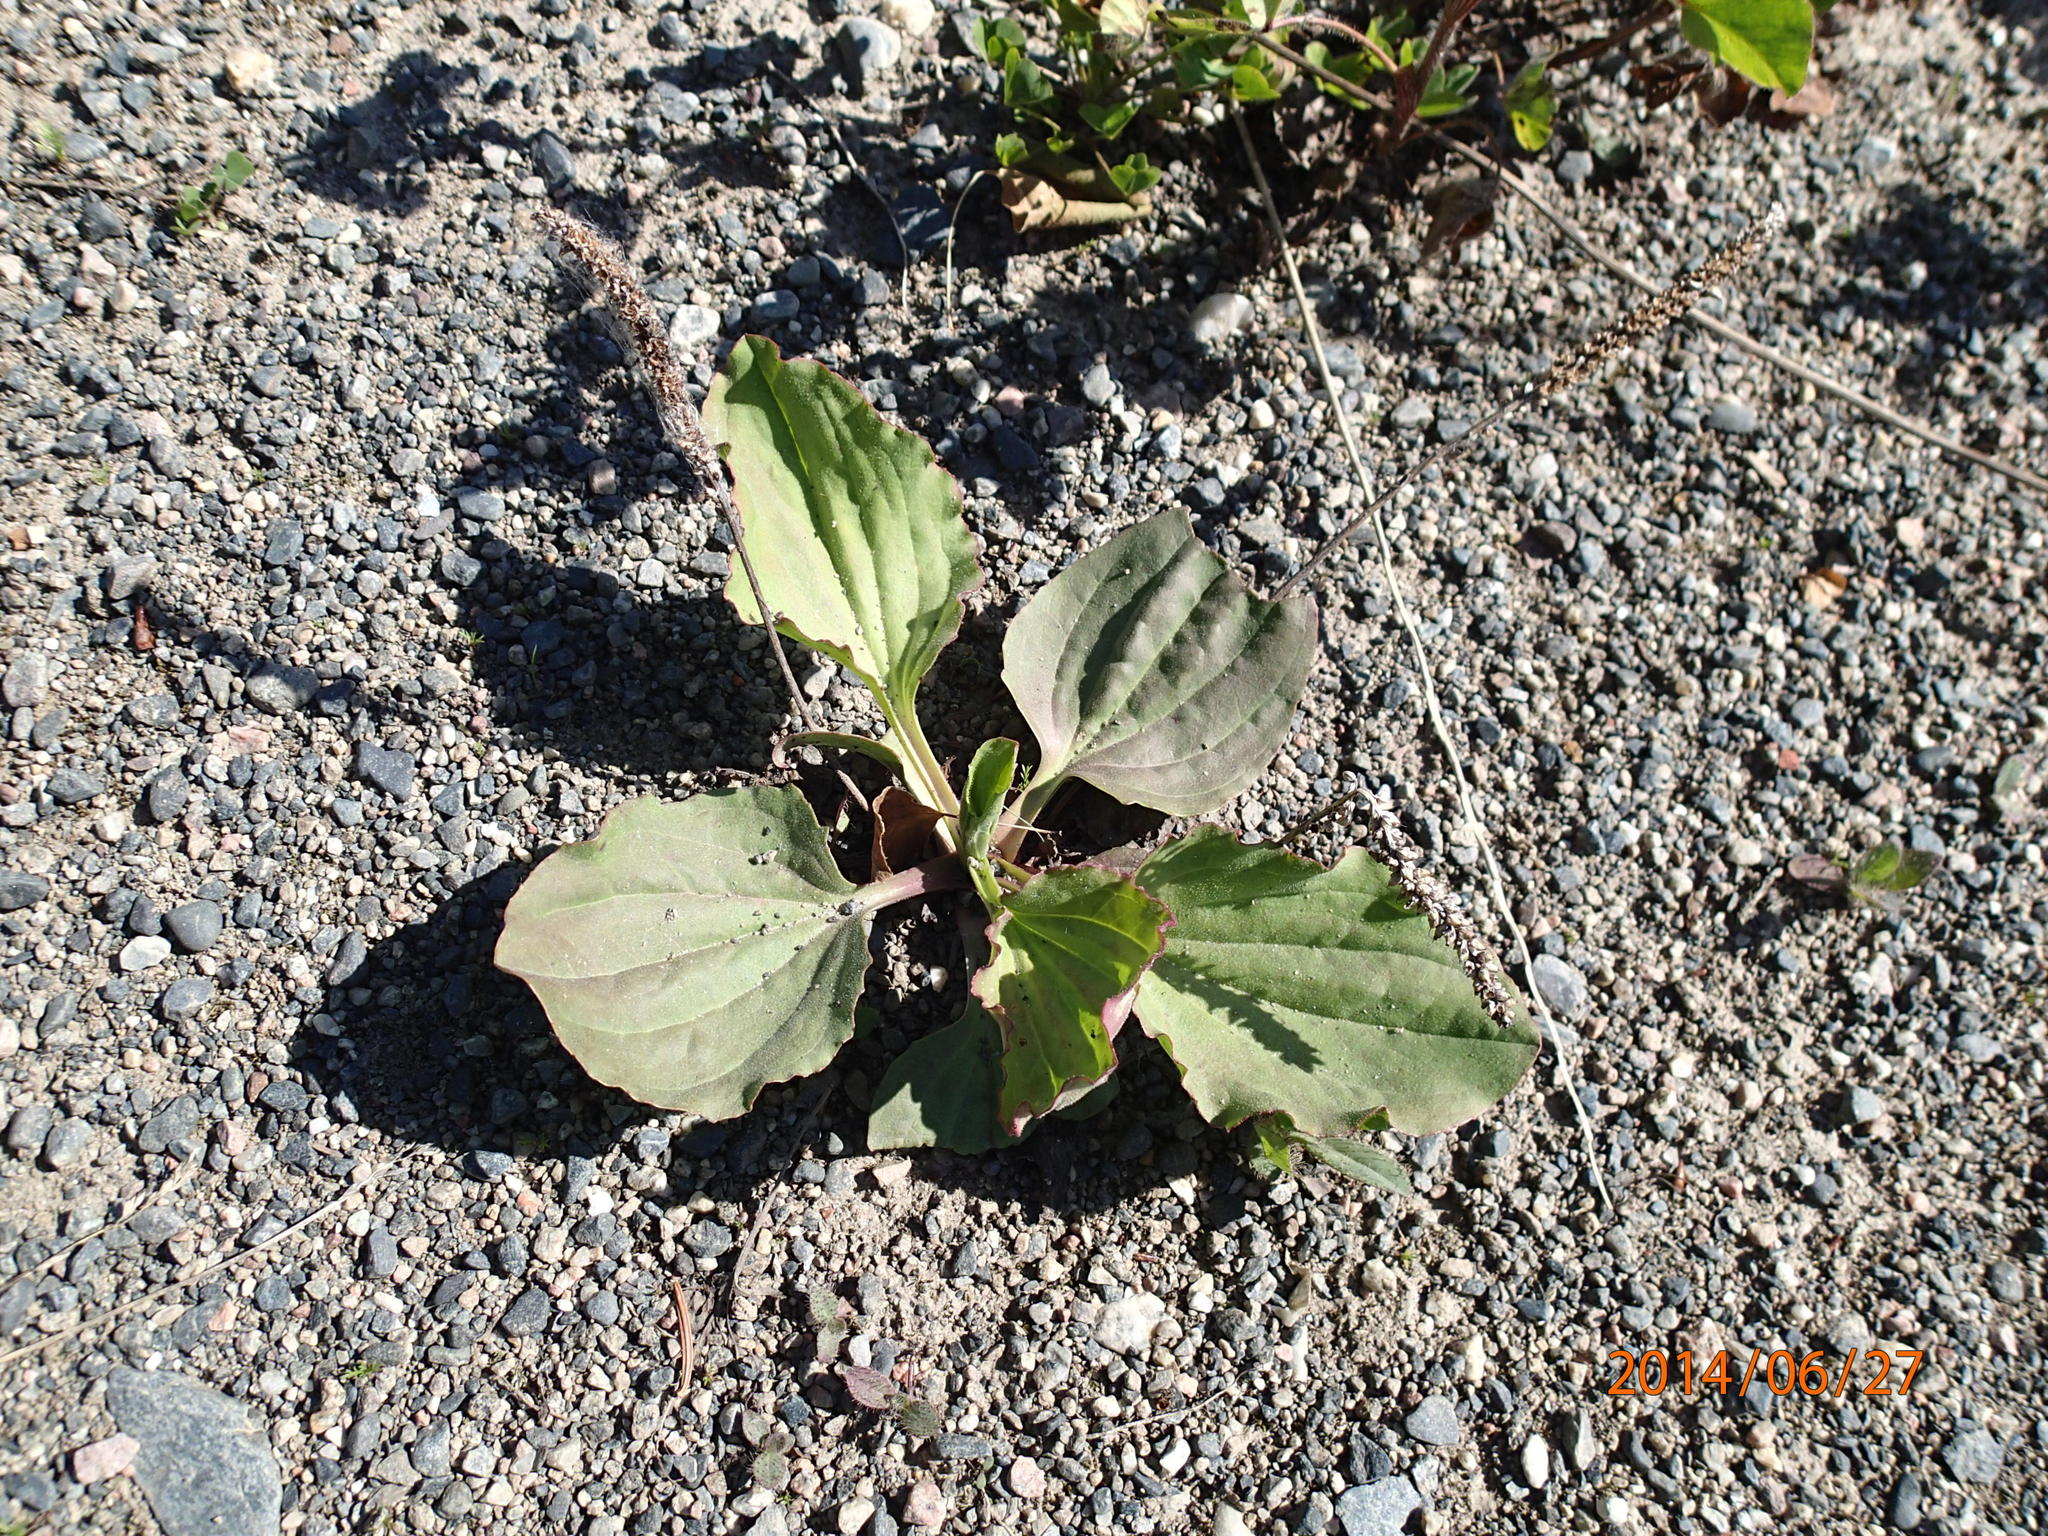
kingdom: Plantae
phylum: Tracheophyta
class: Magnoliopsida
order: Lamiales
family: Plantaginaceae
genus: Plantago
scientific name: Plantago major
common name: Common plantain
